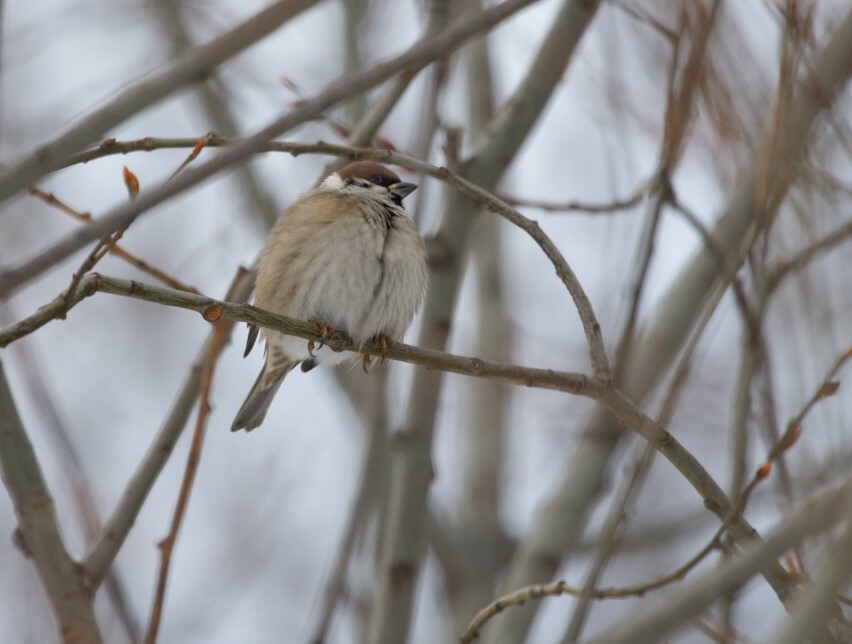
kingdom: Animalia
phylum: Chordata
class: Aves
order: Passeriformes
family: Passeridae
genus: Passer
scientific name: Passer montanus
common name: Eurasian tree sparrow
